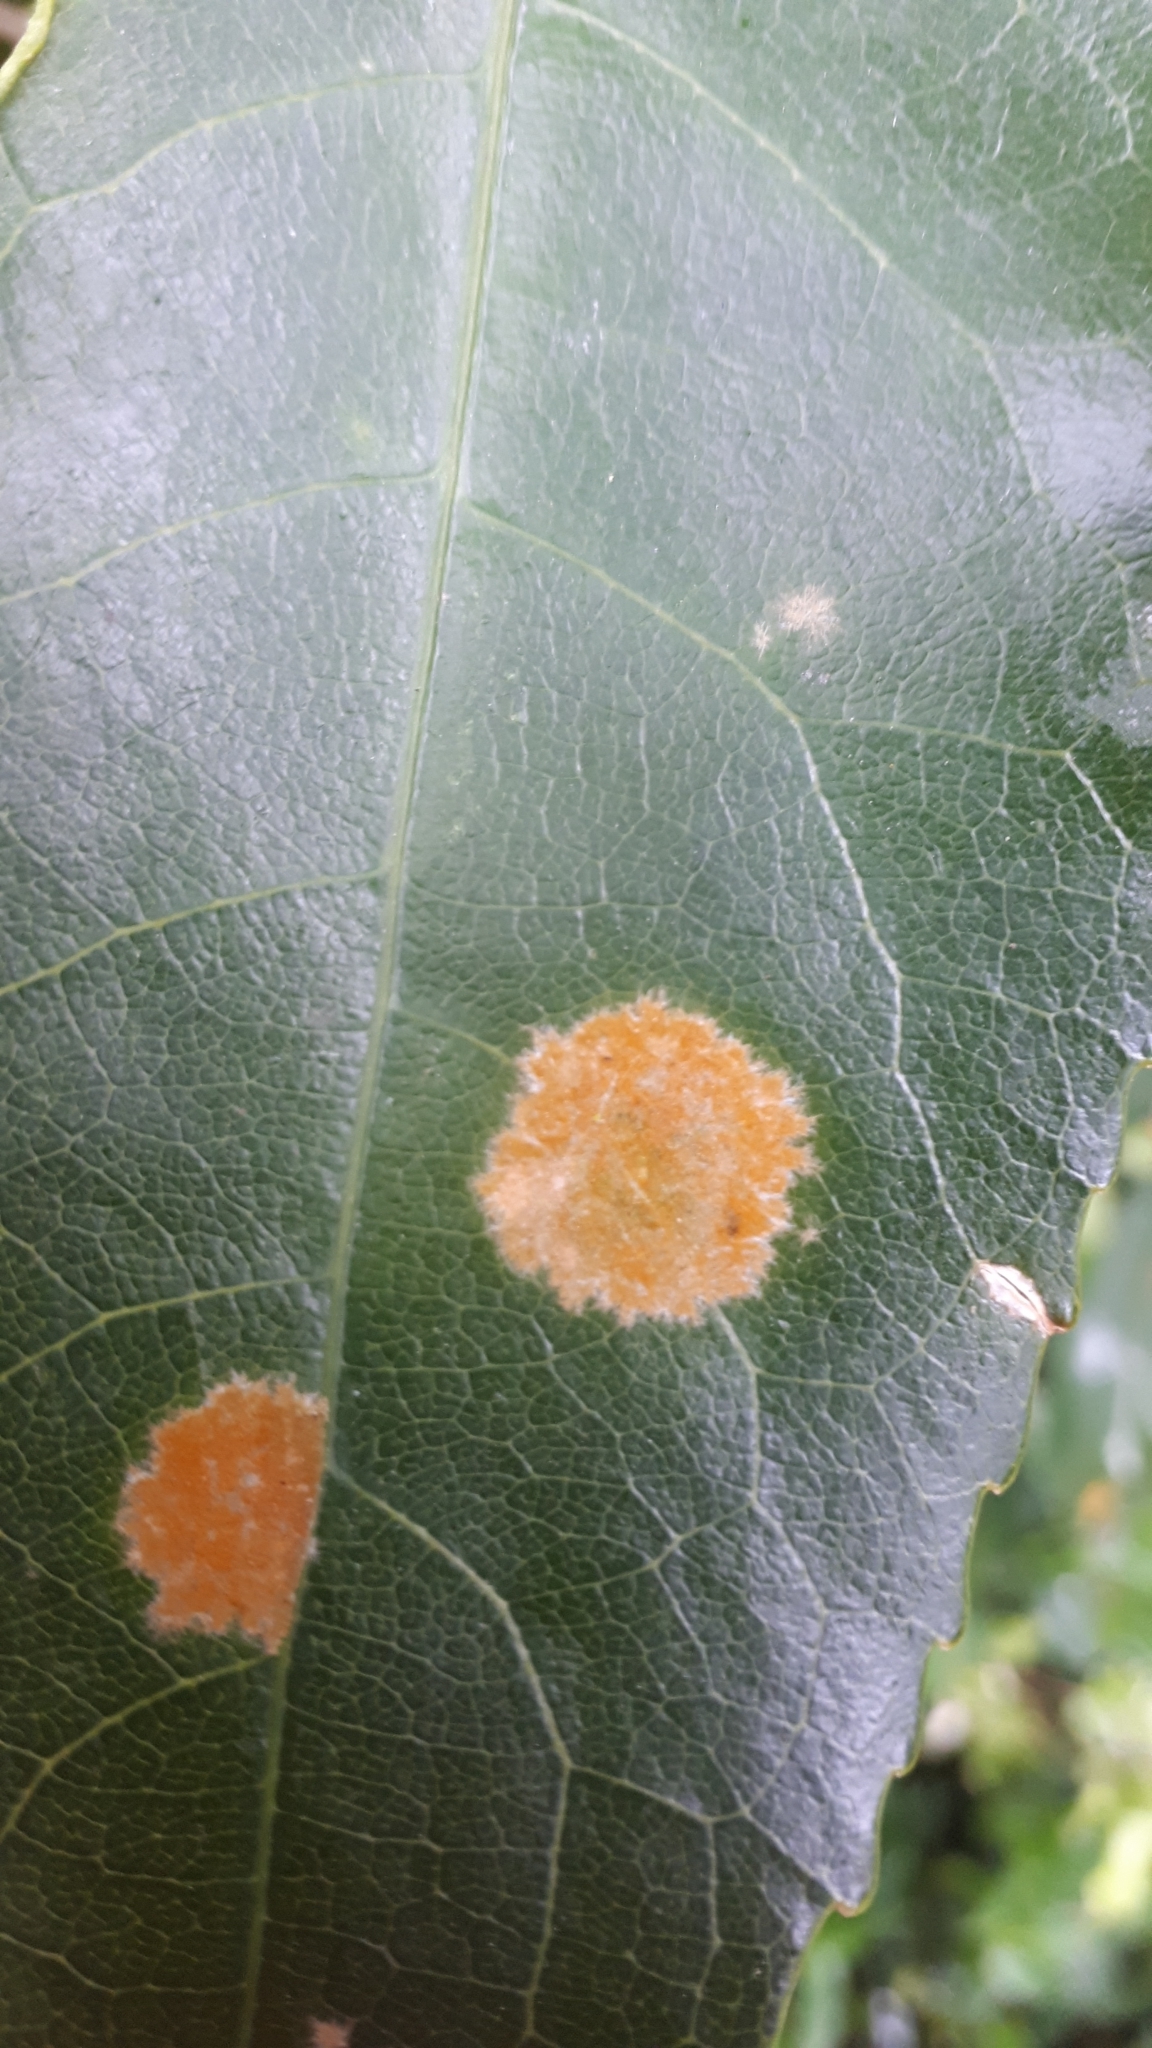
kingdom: Plantae
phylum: Chlorophyta
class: Ulvophyceae
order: Trentepohliales
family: Trentepohliaceae
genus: Cephaleuros
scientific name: Cephaleuros
